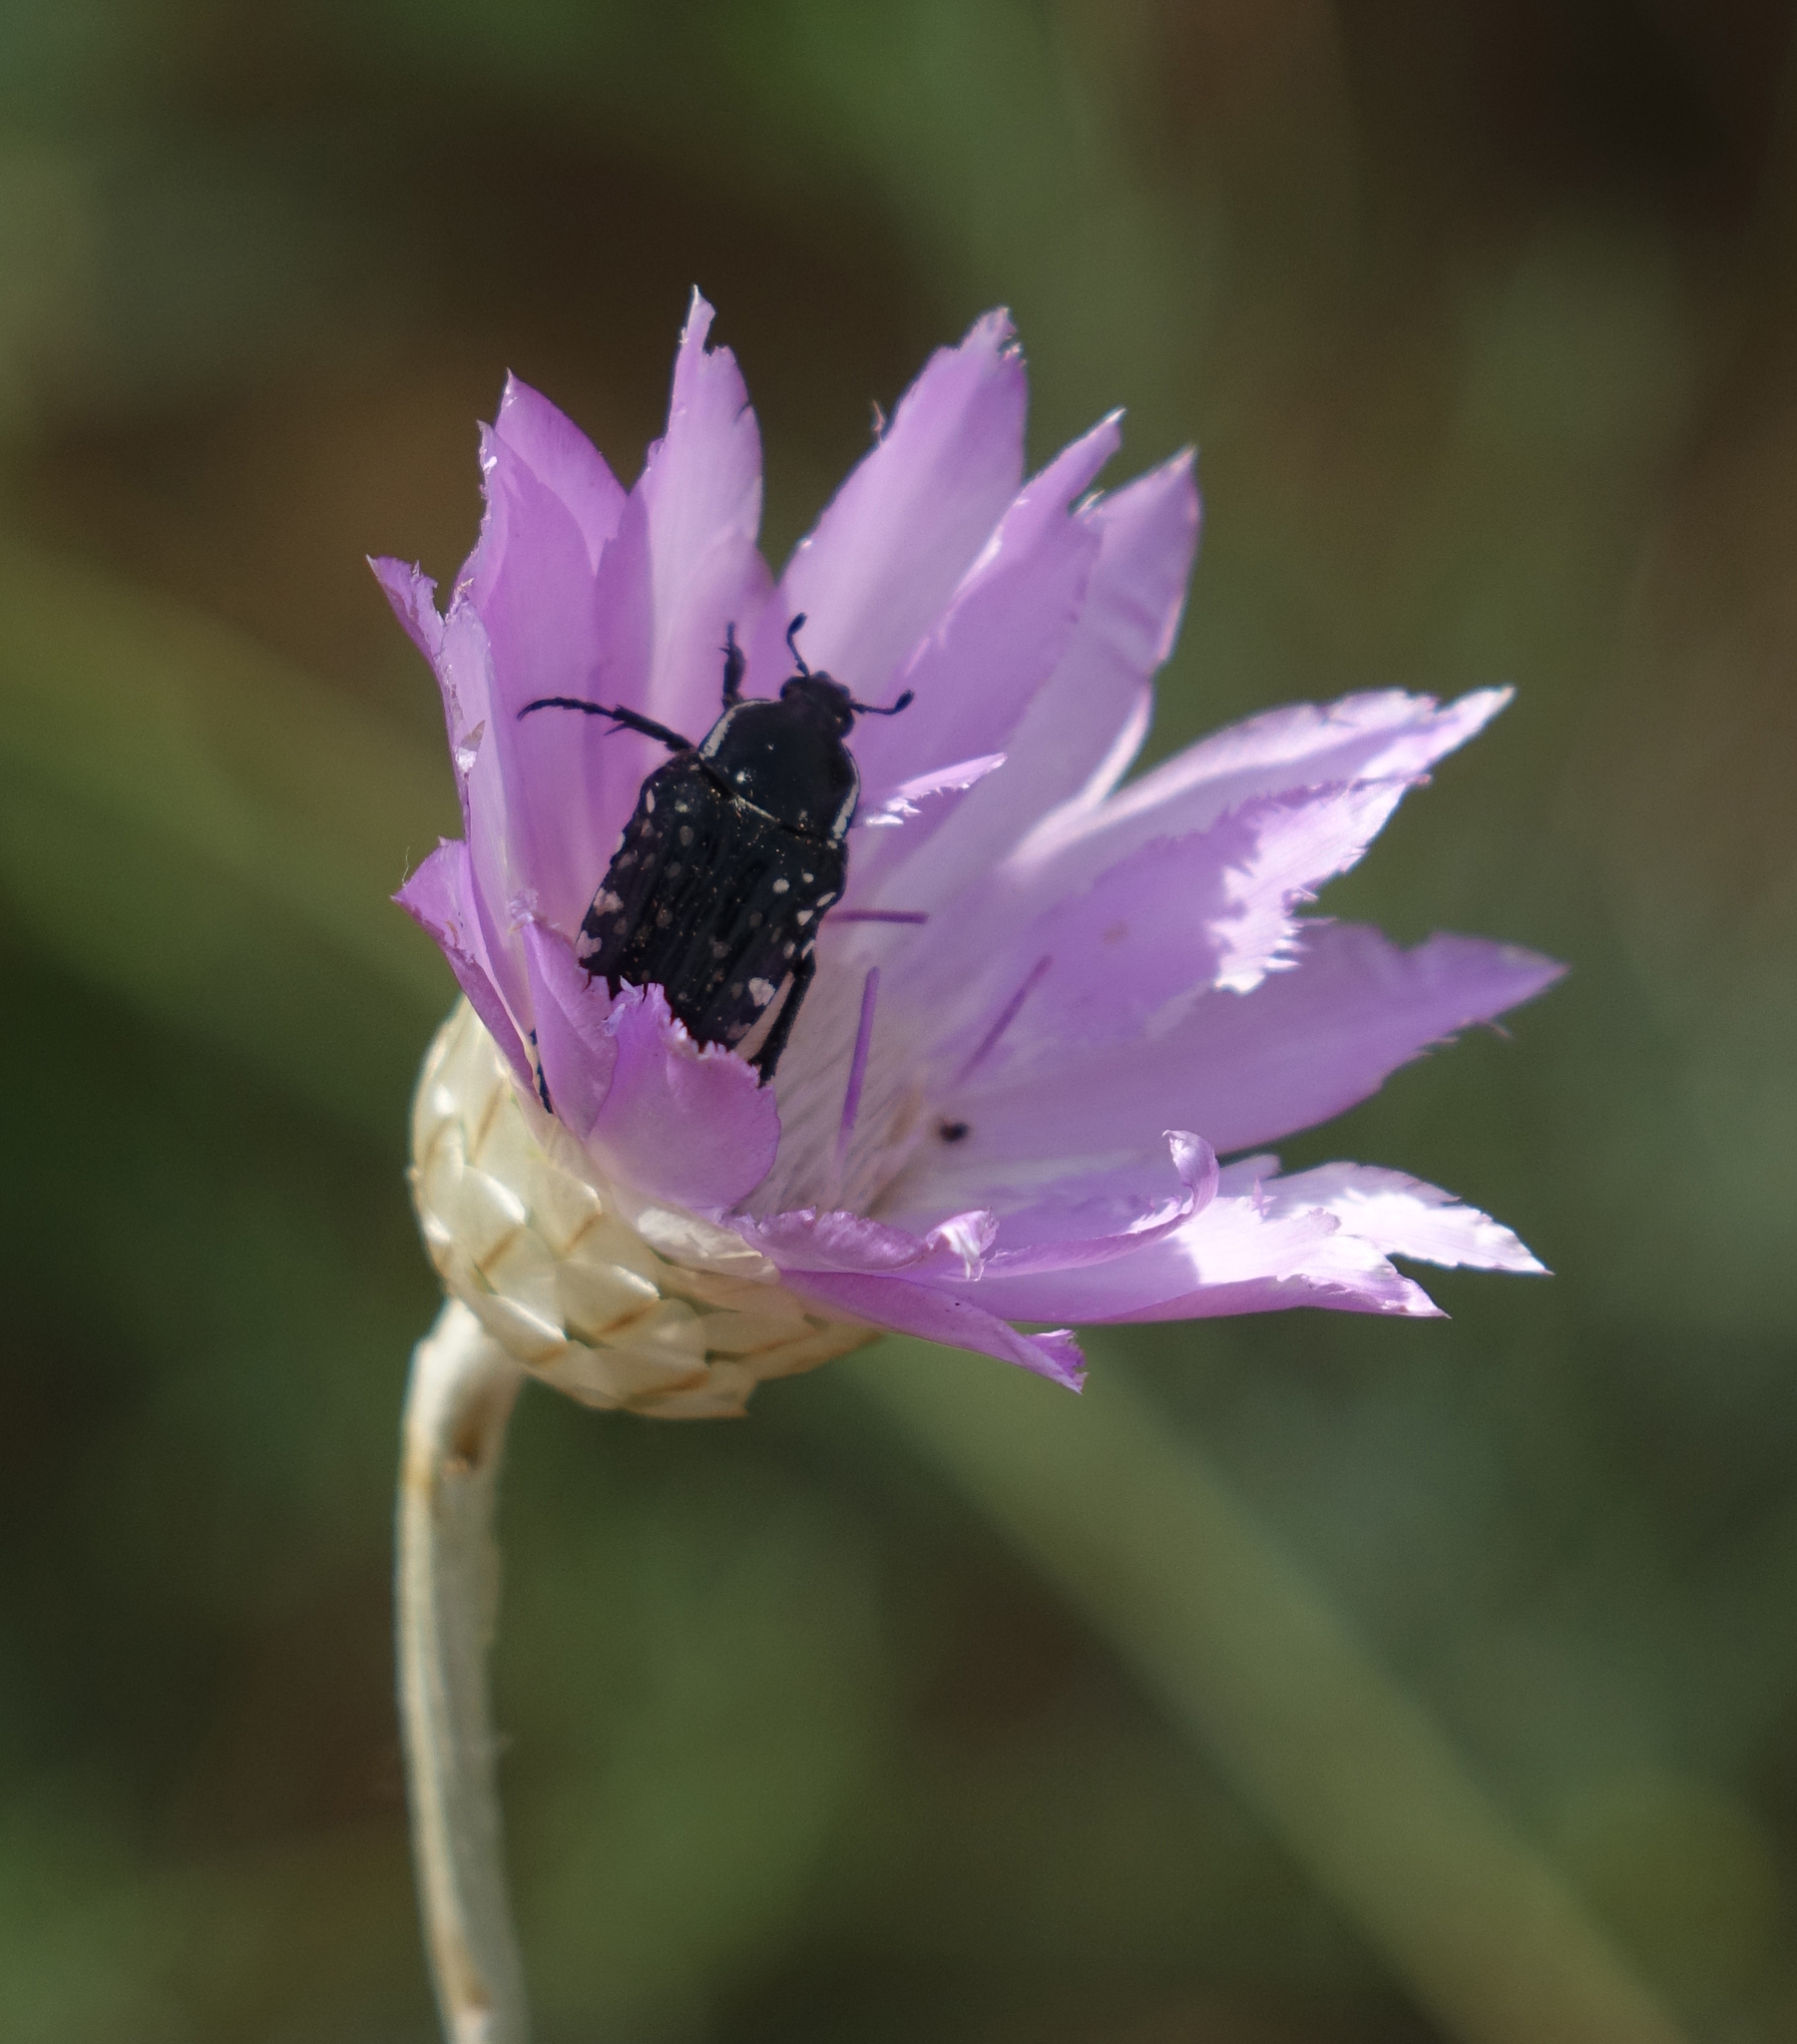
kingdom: Animalia
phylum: Arthropoda
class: Insecta
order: Coleoptera
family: Scarabaeidae
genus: Oxythyrea
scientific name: Oxythyrea cinctella
